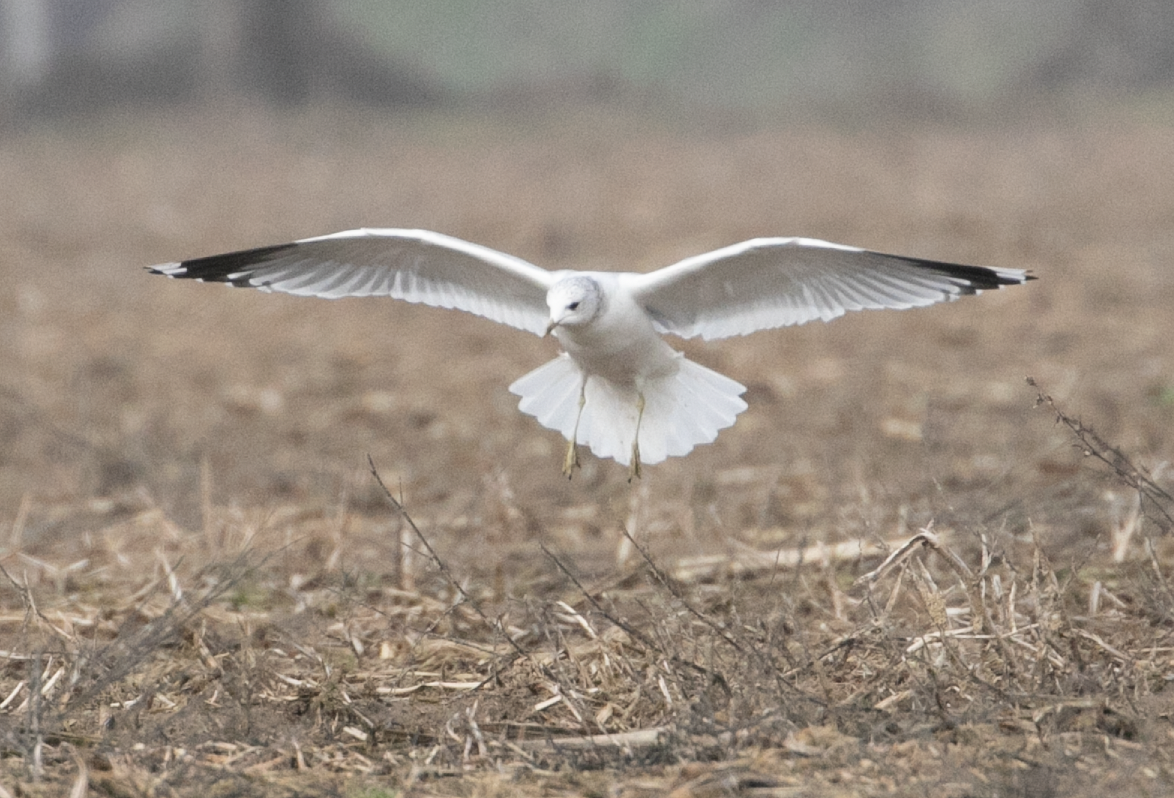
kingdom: Animalia
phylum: Chordata
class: Aves
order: Charadriiformes
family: Laridae
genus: Larus
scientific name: Larus canus
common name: Mew gull
